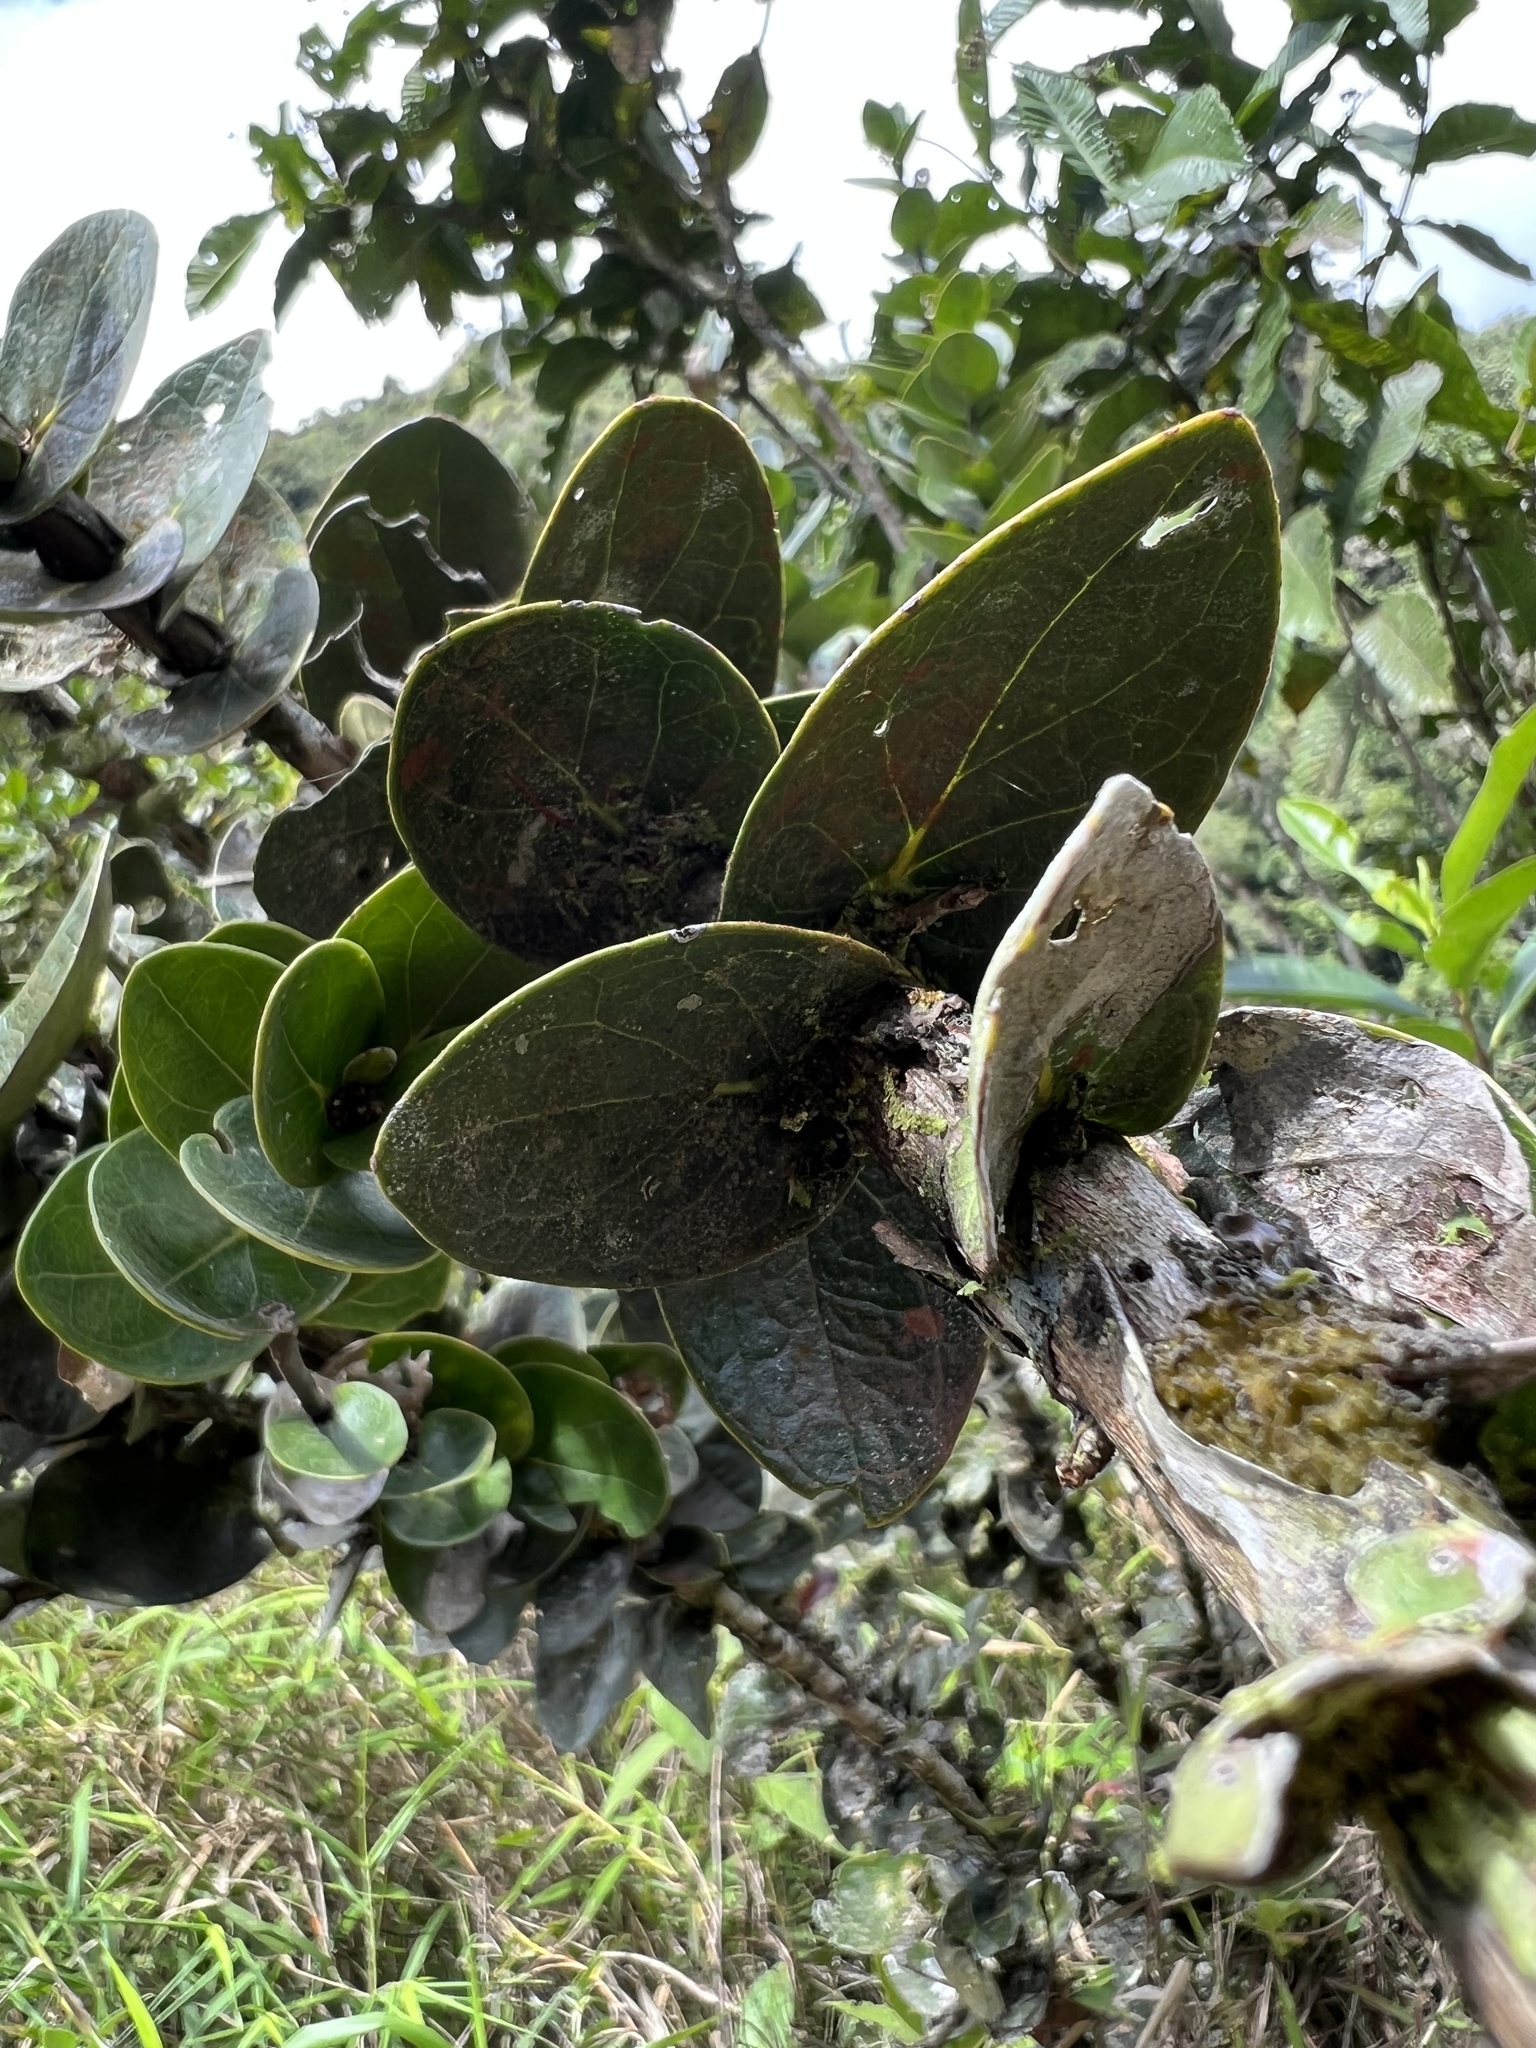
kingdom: Plantae
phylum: Tracheophyta
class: Magnoliopsida
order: Ericales
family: Ericaceae
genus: Macleania
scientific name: Macleania smithiana
